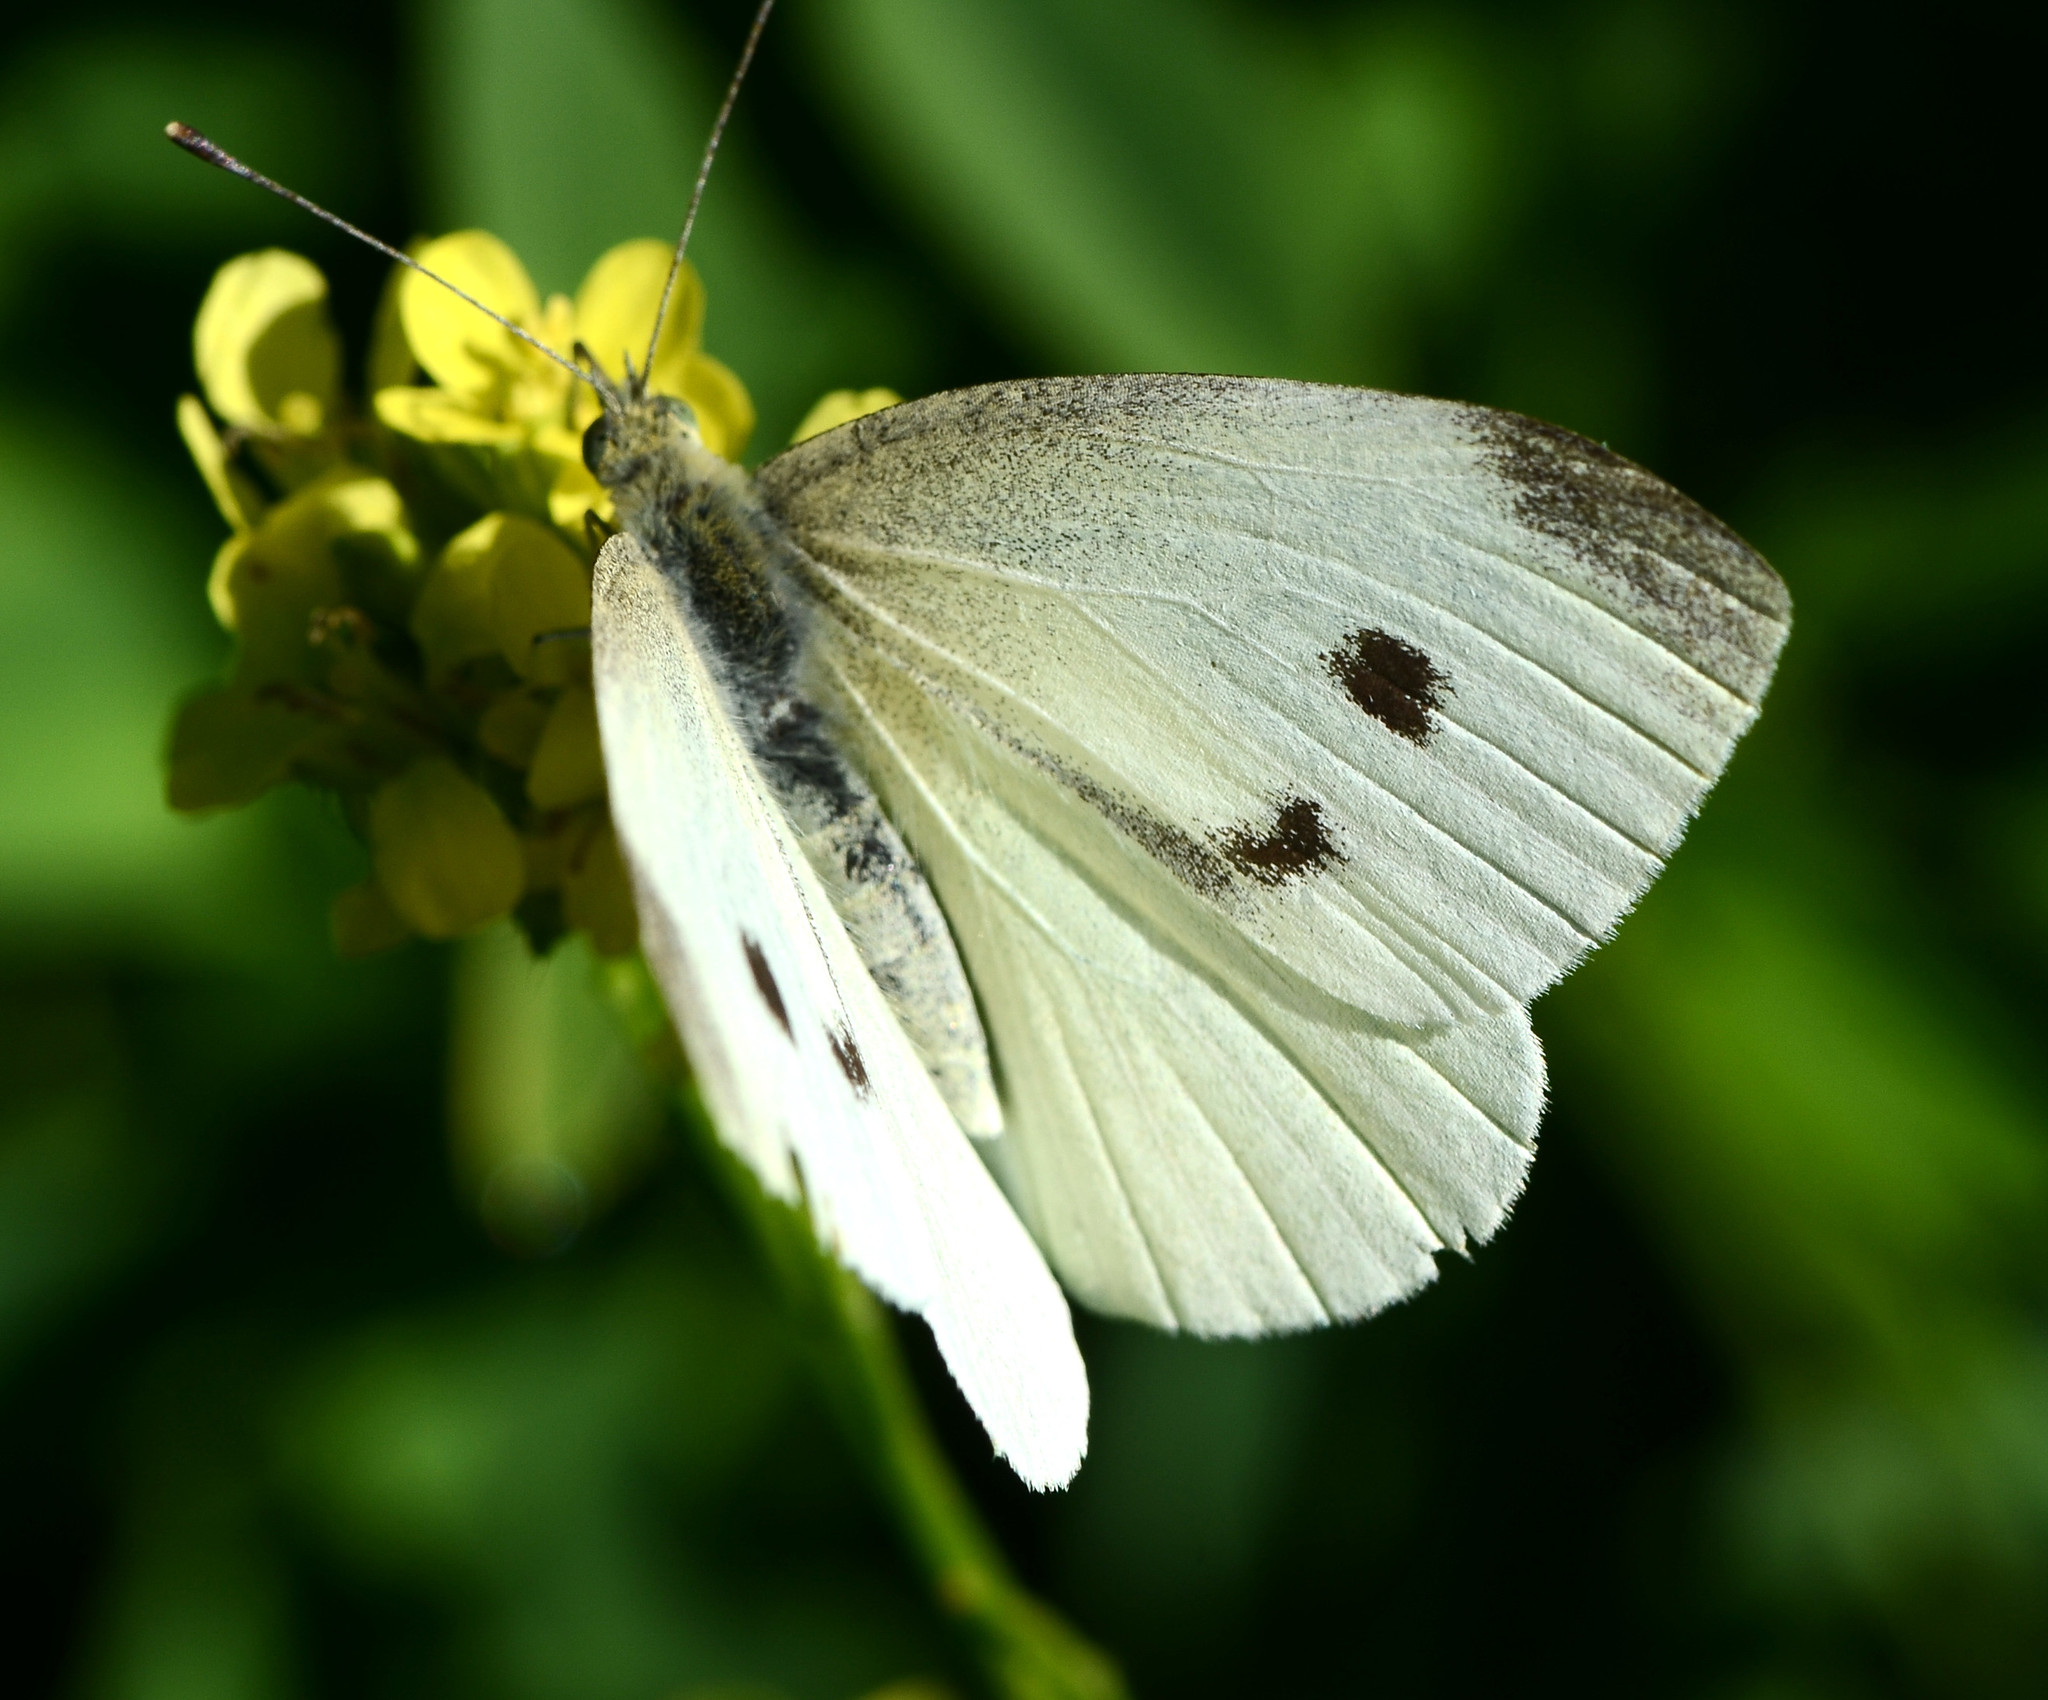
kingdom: Animalia
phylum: Arthropoda
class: Insecta
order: Lepidoptera
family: Pieridae
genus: Pieris
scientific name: Pieris rapae
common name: Small white
